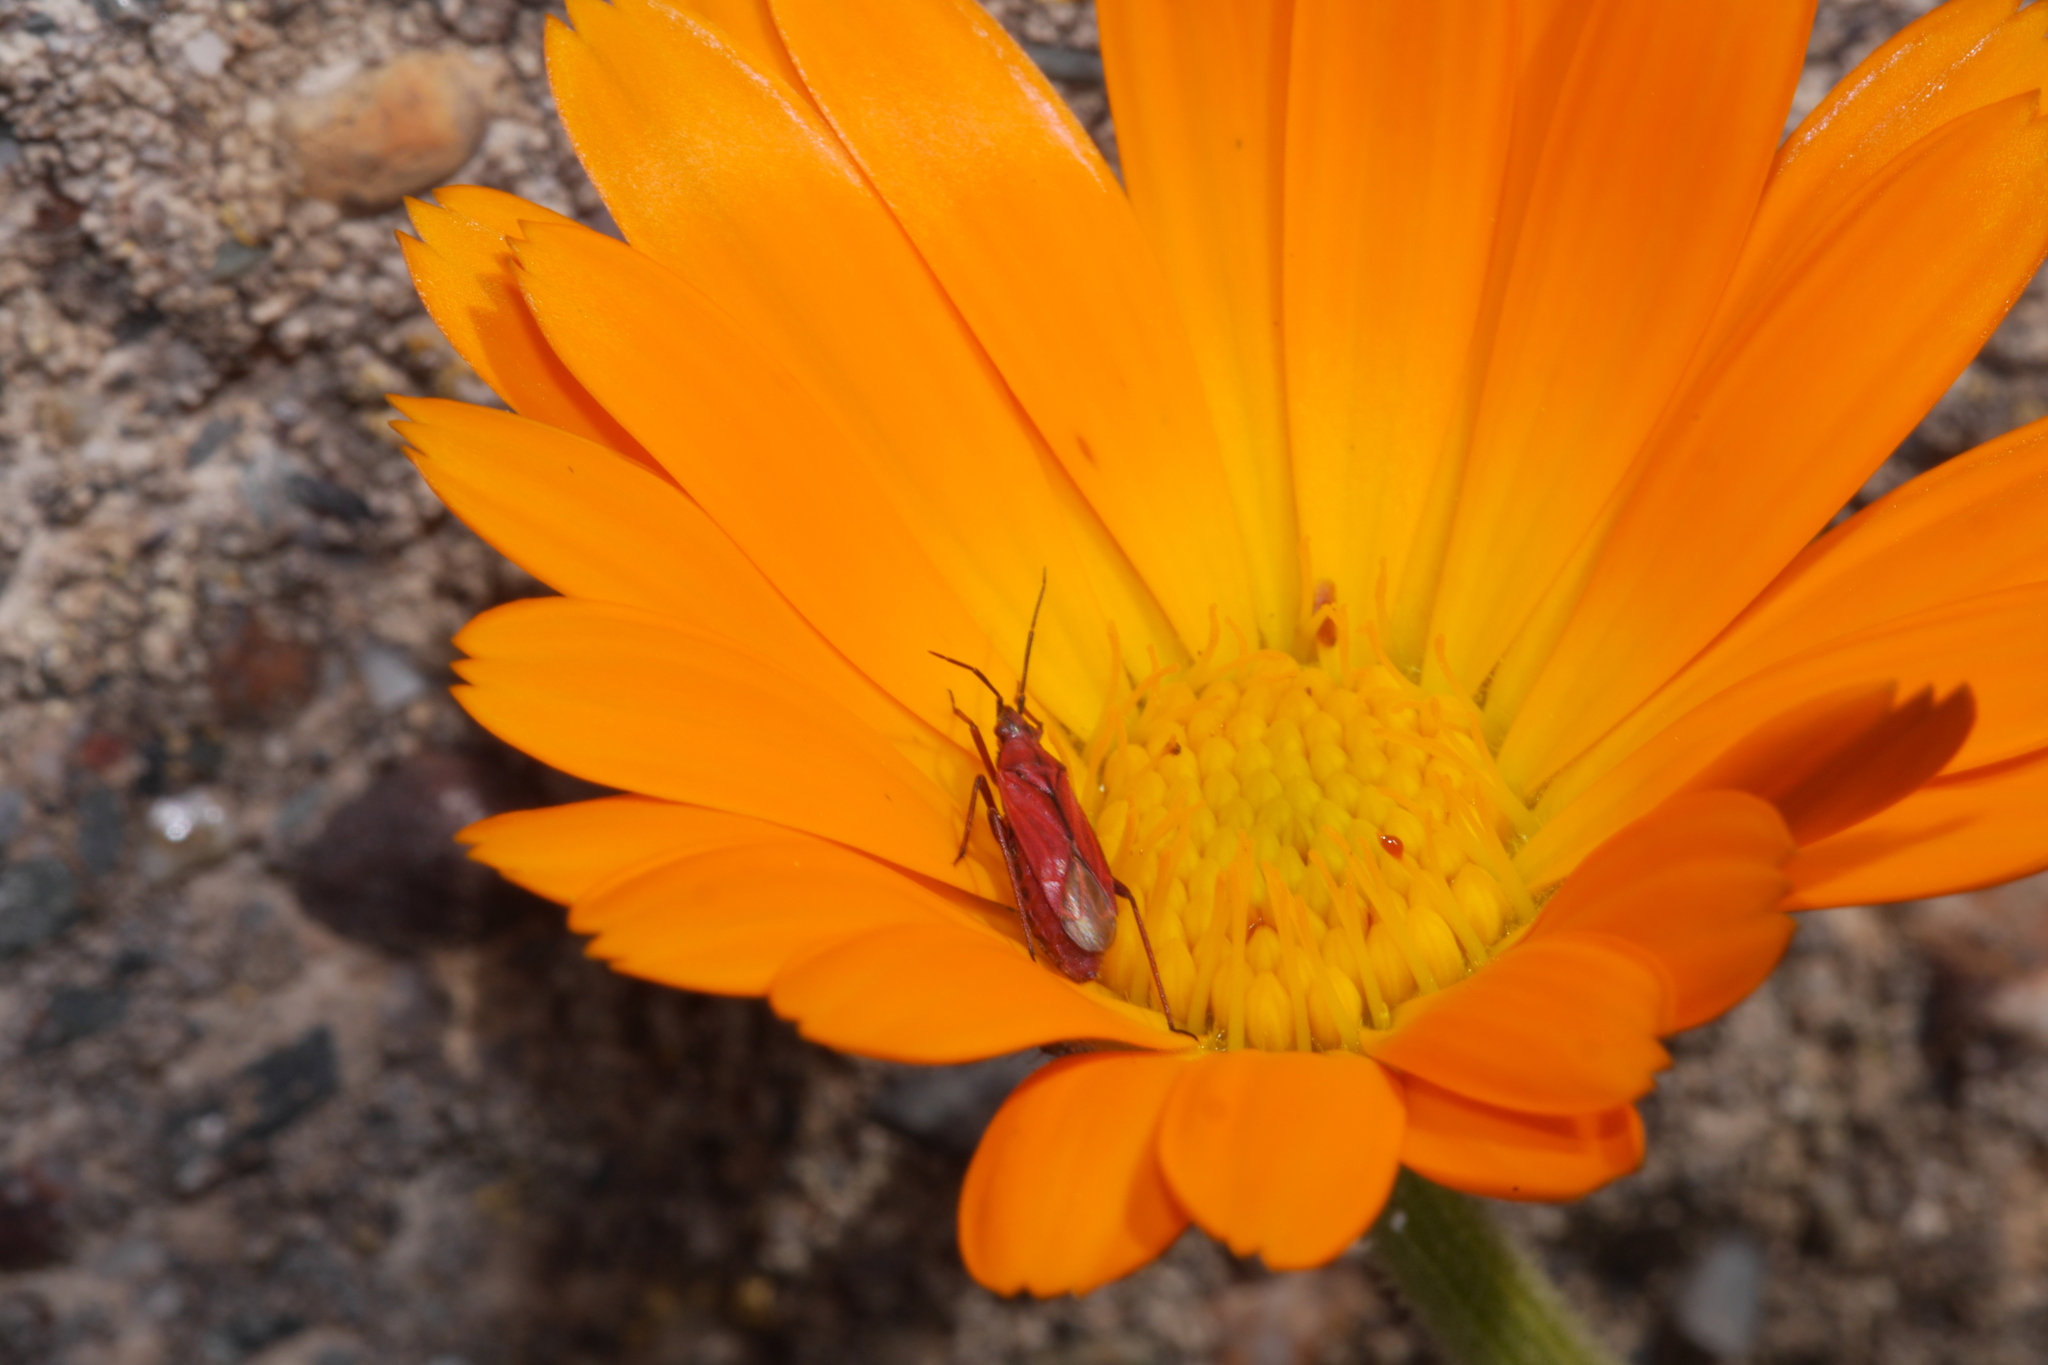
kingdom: Animalia
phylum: Arthropoda
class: Insecta
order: Hemiptera
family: Miridae
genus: Macrotylus
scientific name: Macrotylus nigricornis
